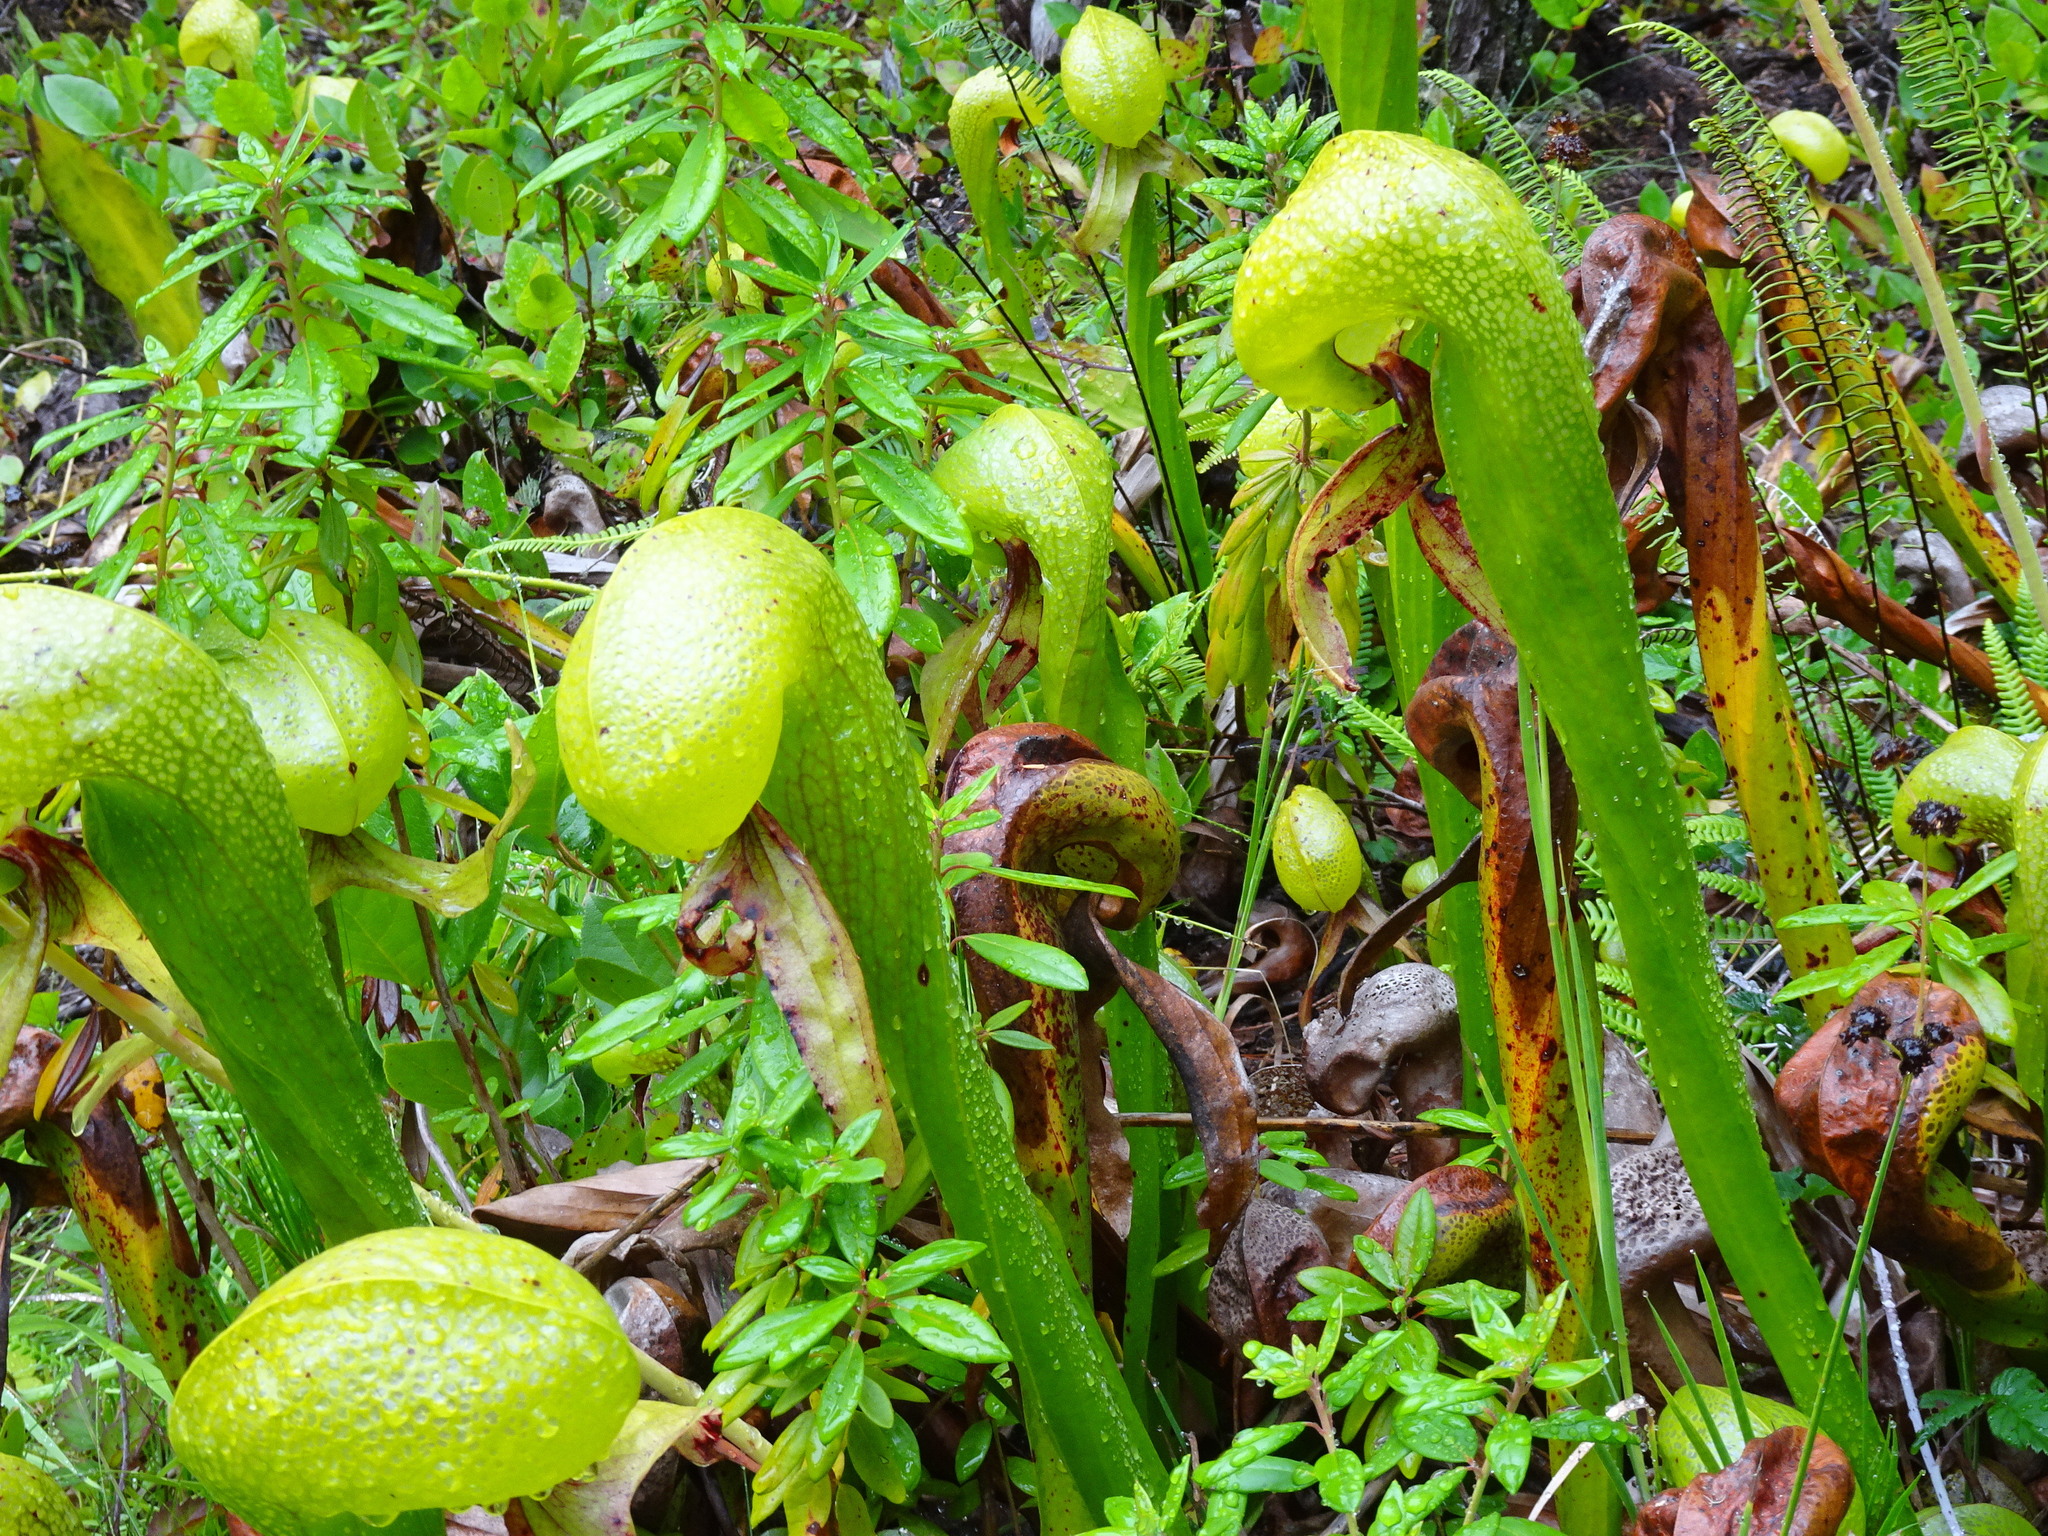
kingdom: Plantae
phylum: Tracheophyta
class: Magnoliopsida
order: Ericales
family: Sarraceniaceae
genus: Darlingtonia
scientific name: Darlingtonia californica
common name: California pitcher plant
